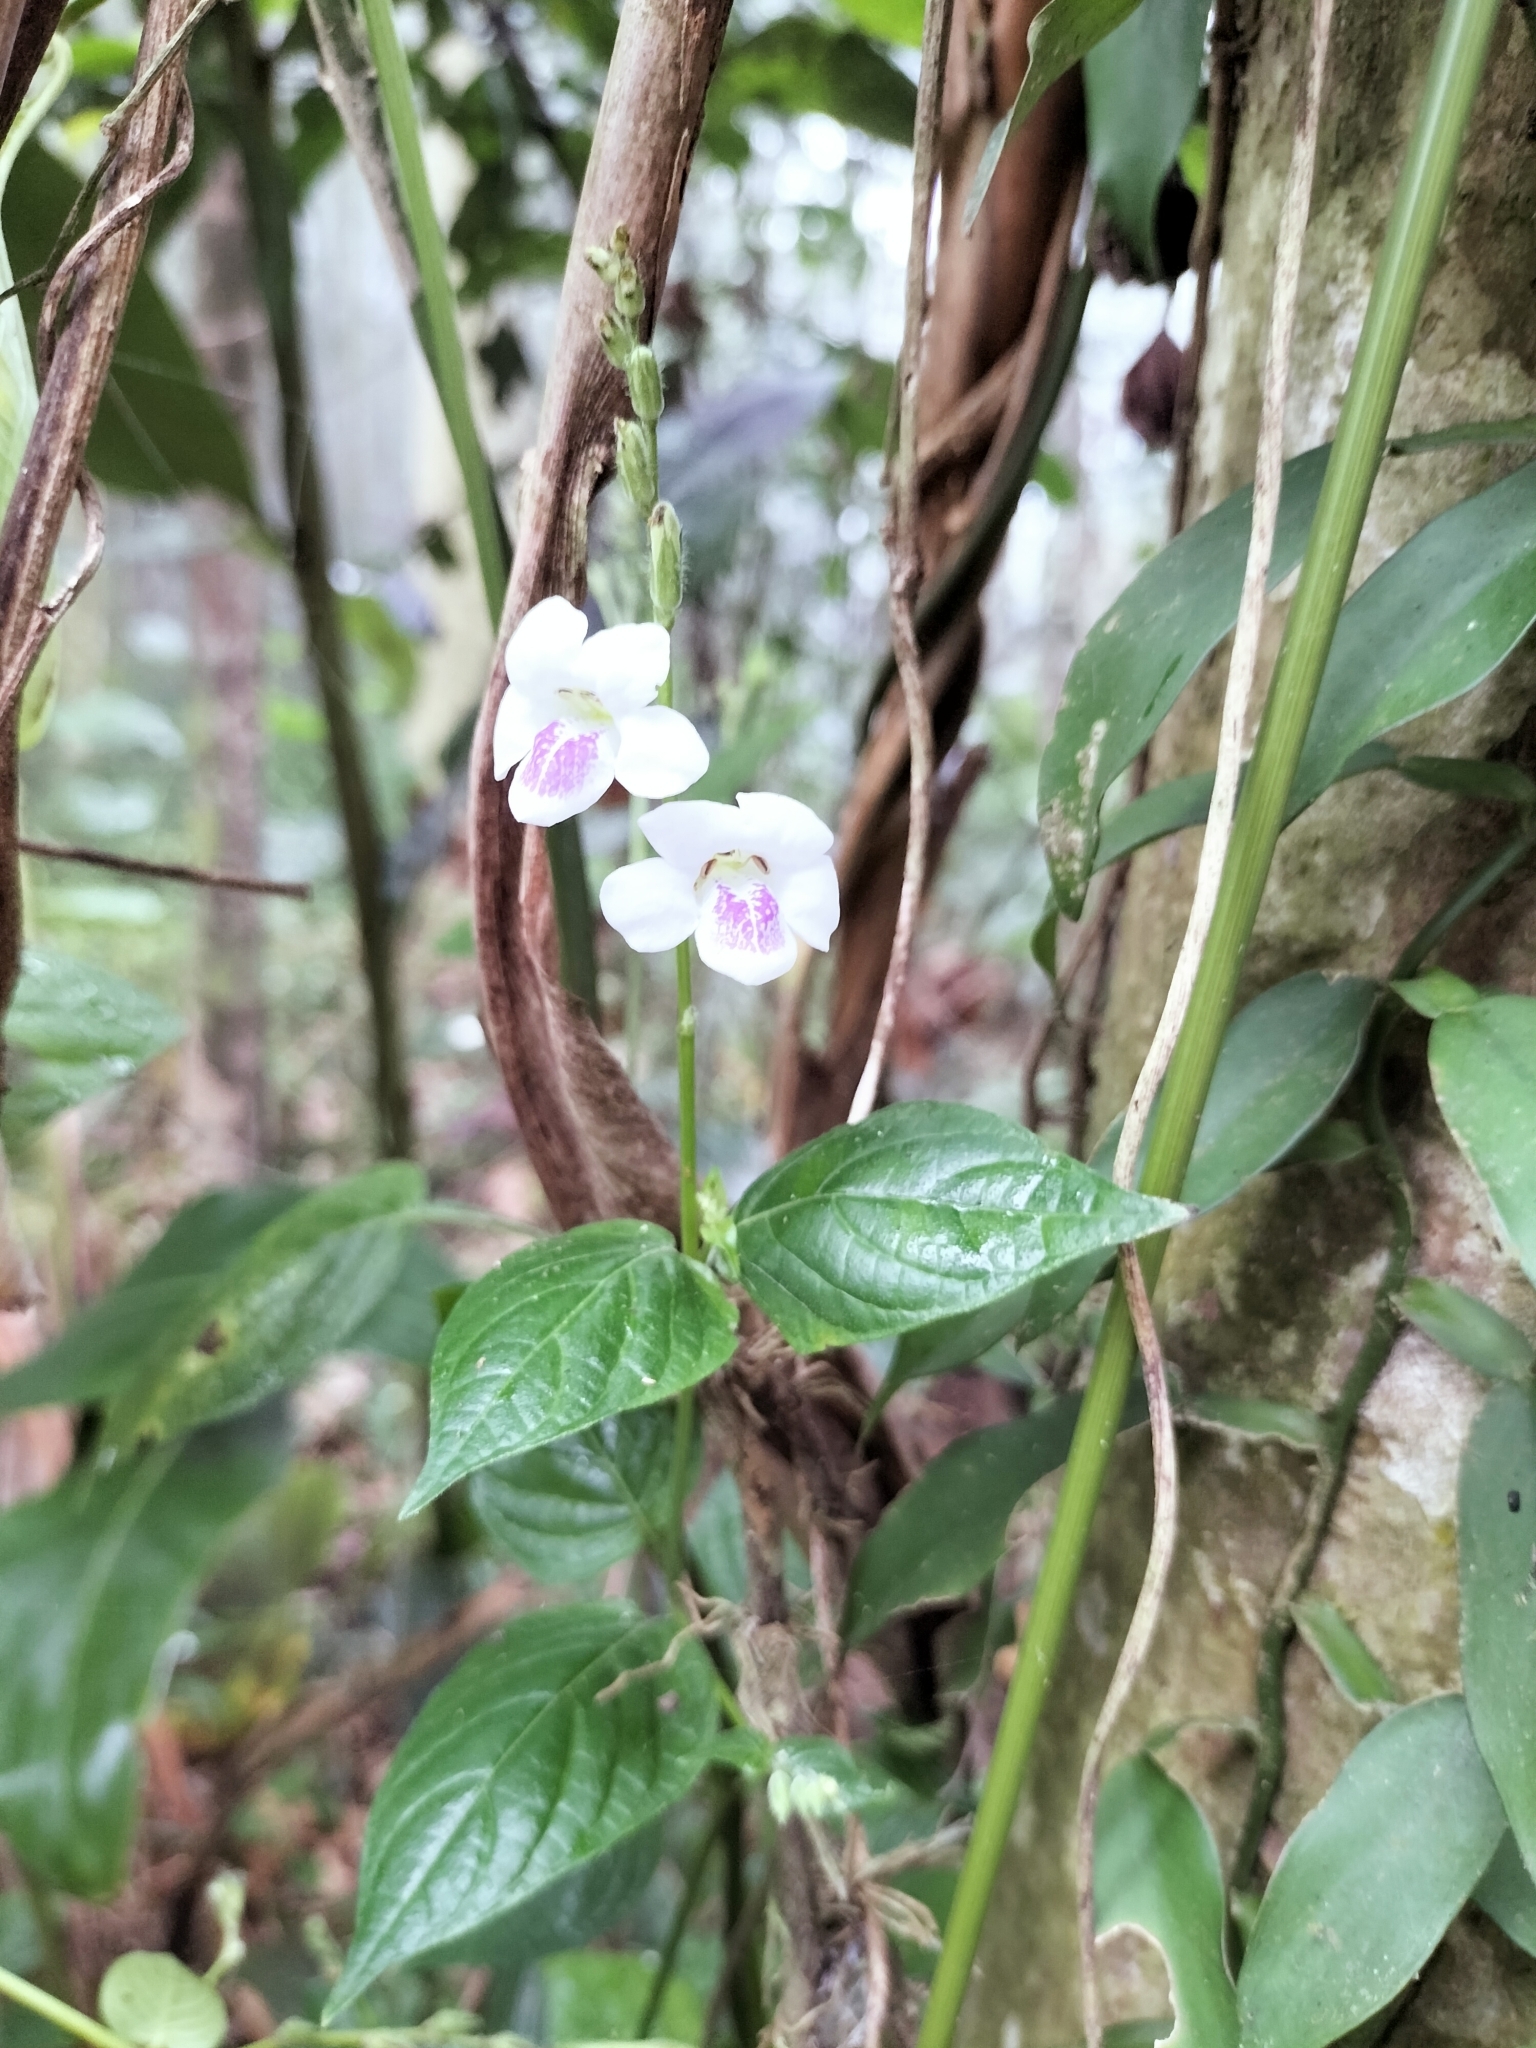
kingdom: Plantae
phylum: Tracheophyta
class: Magnoliopsida
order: Lamiales
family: Acanthaceae
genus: Asystasia
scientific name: Asystasia intrusa
